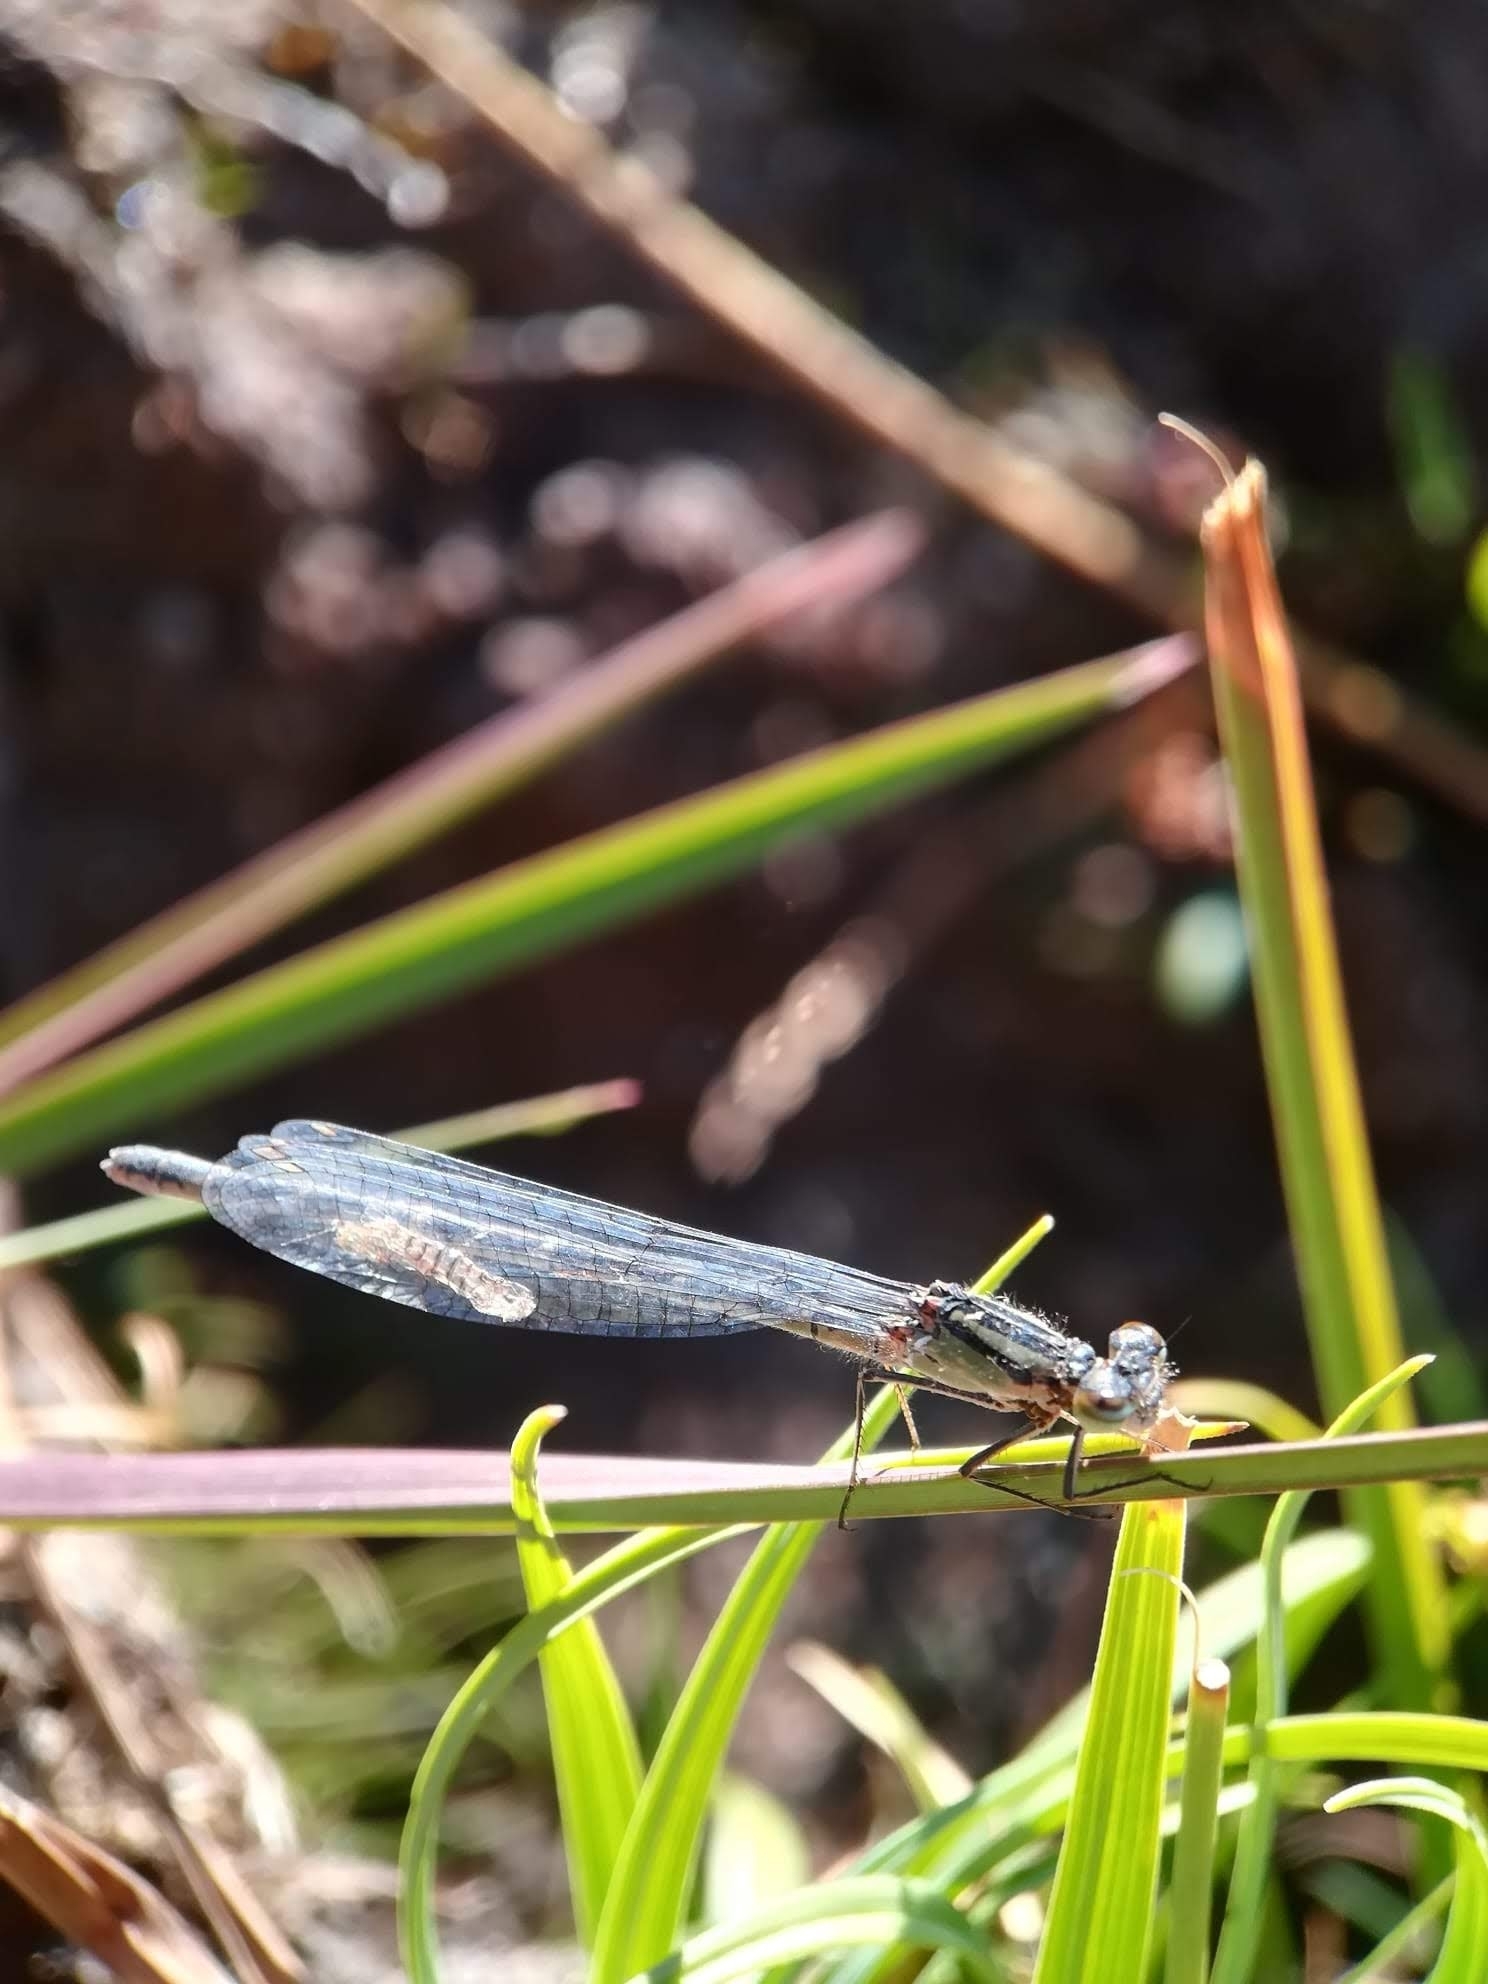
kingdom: Animalia
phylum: Arthropoda
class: Insecta
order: Odonata
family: Coenagrionidae
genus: Enallagma
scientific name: Enallagma cyathigerum
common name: Common blue damselfly
